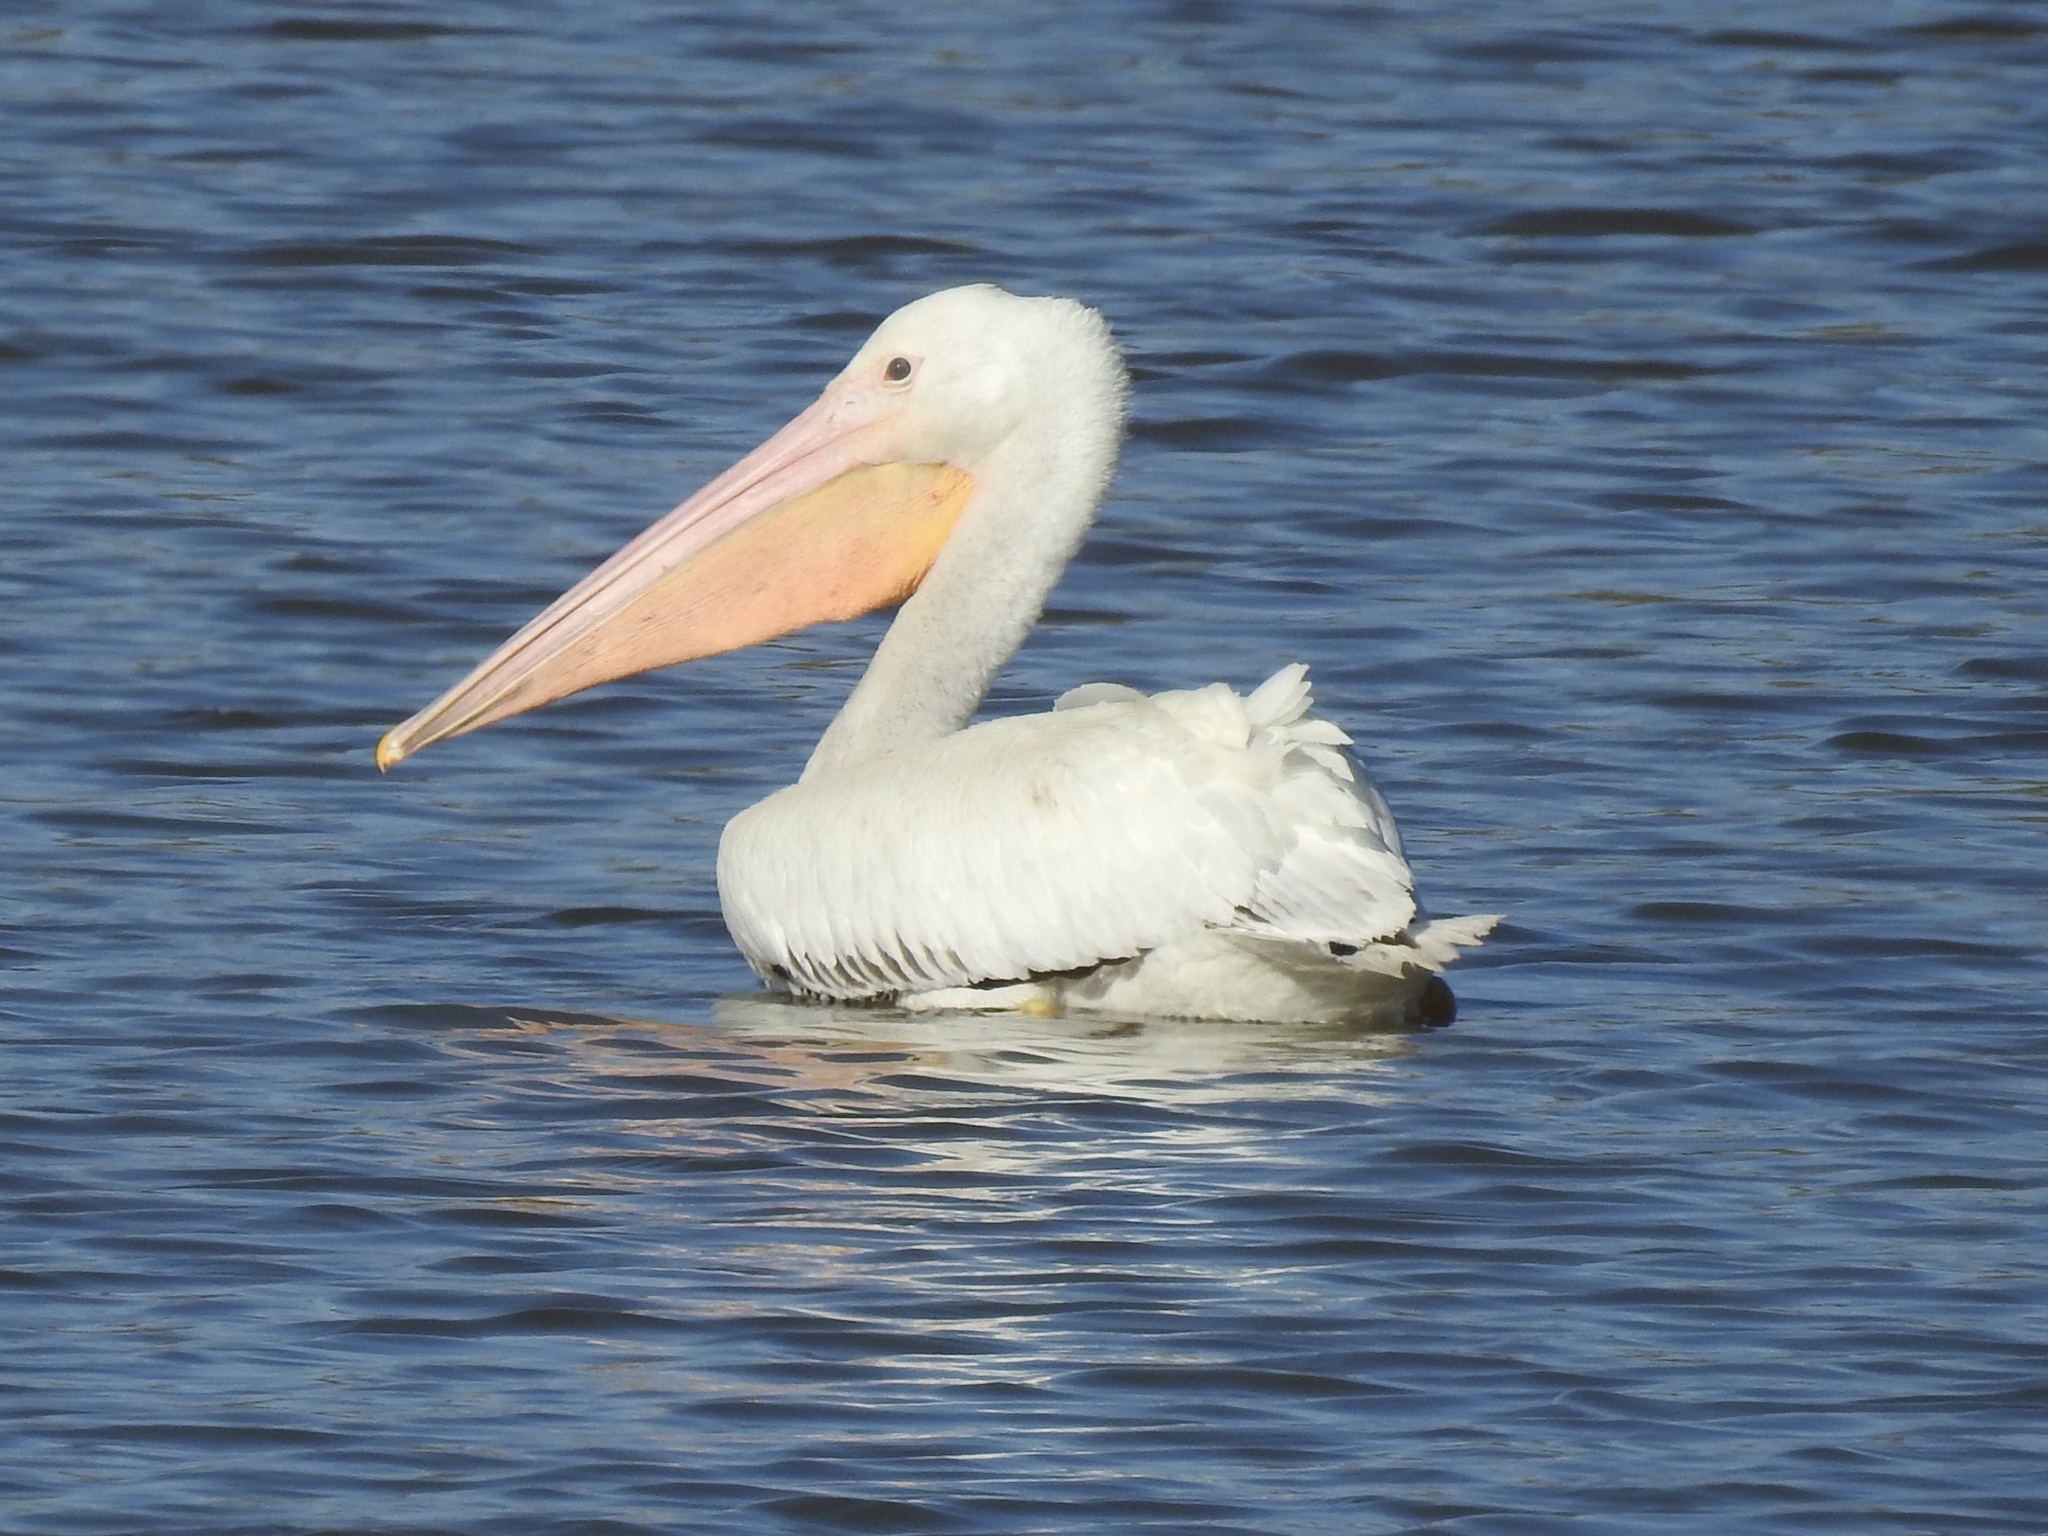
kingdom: Animalia
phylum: Chordata
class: Aves
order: Pelecaniformes
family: Pelecanidae
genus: Pelecanus
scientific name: Pelecanus erythrorhynchos
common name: American white pelican
